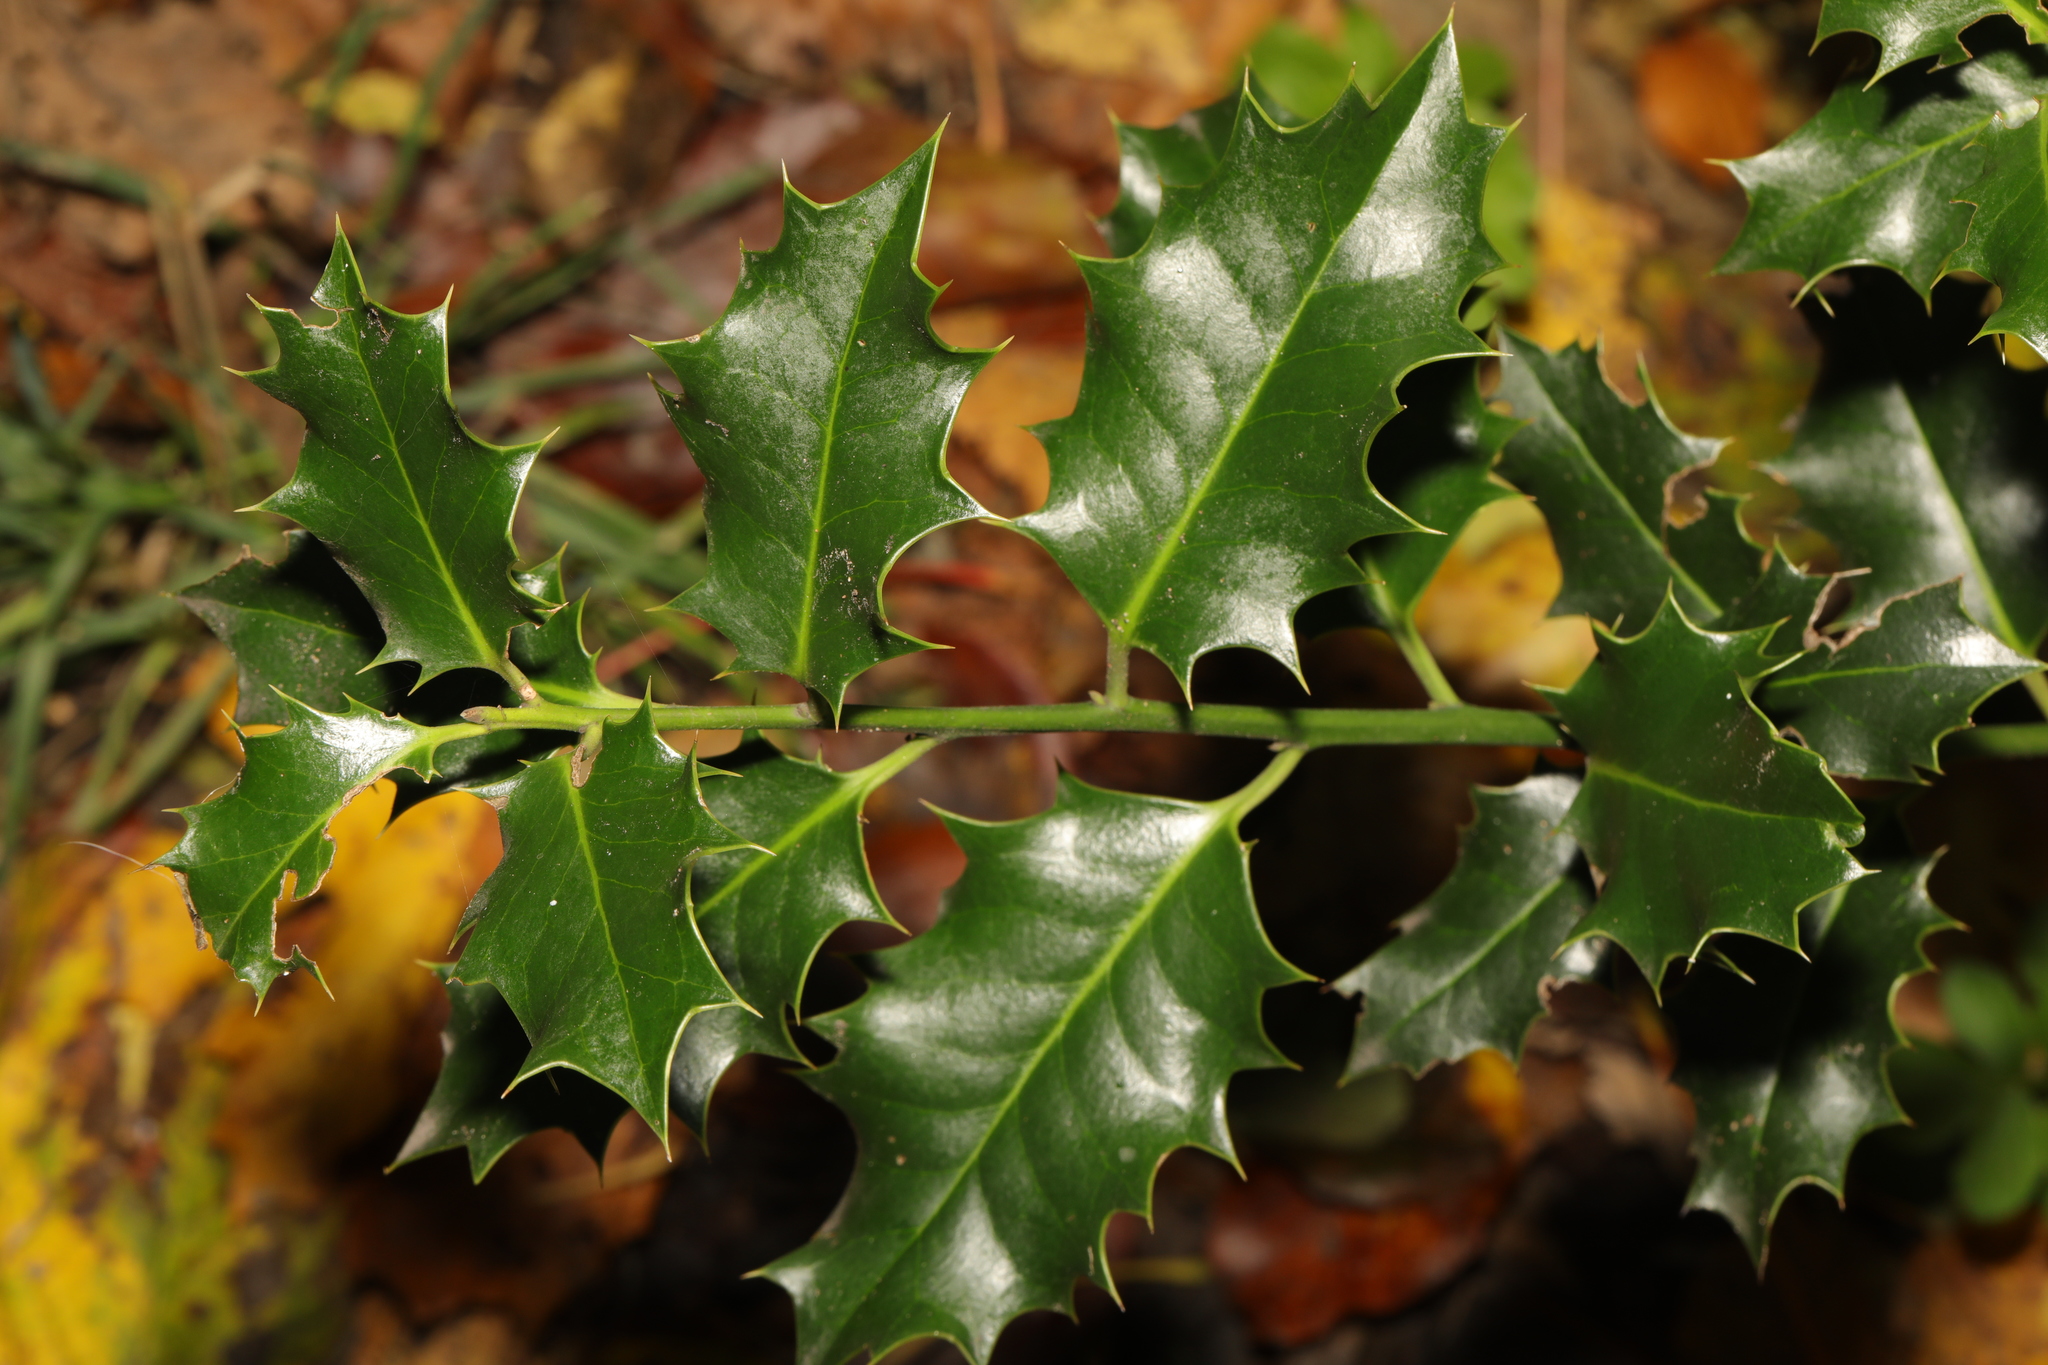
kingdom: Plantae
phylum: Tracheophyta
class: Magnoliopsida
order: Aquifoliales
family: Aquifoliaceae
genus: Ilex
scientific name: Ilex aquifolium
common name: English holly
